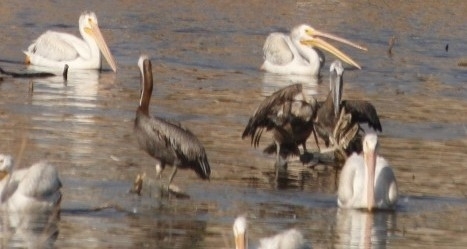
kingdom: Animalia
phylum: Chordata
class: Aves
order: Pelecaniformes
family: Pelecanidae
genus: Pelecanus
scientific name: Pelecanus occidentalis
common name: Brown pelican
